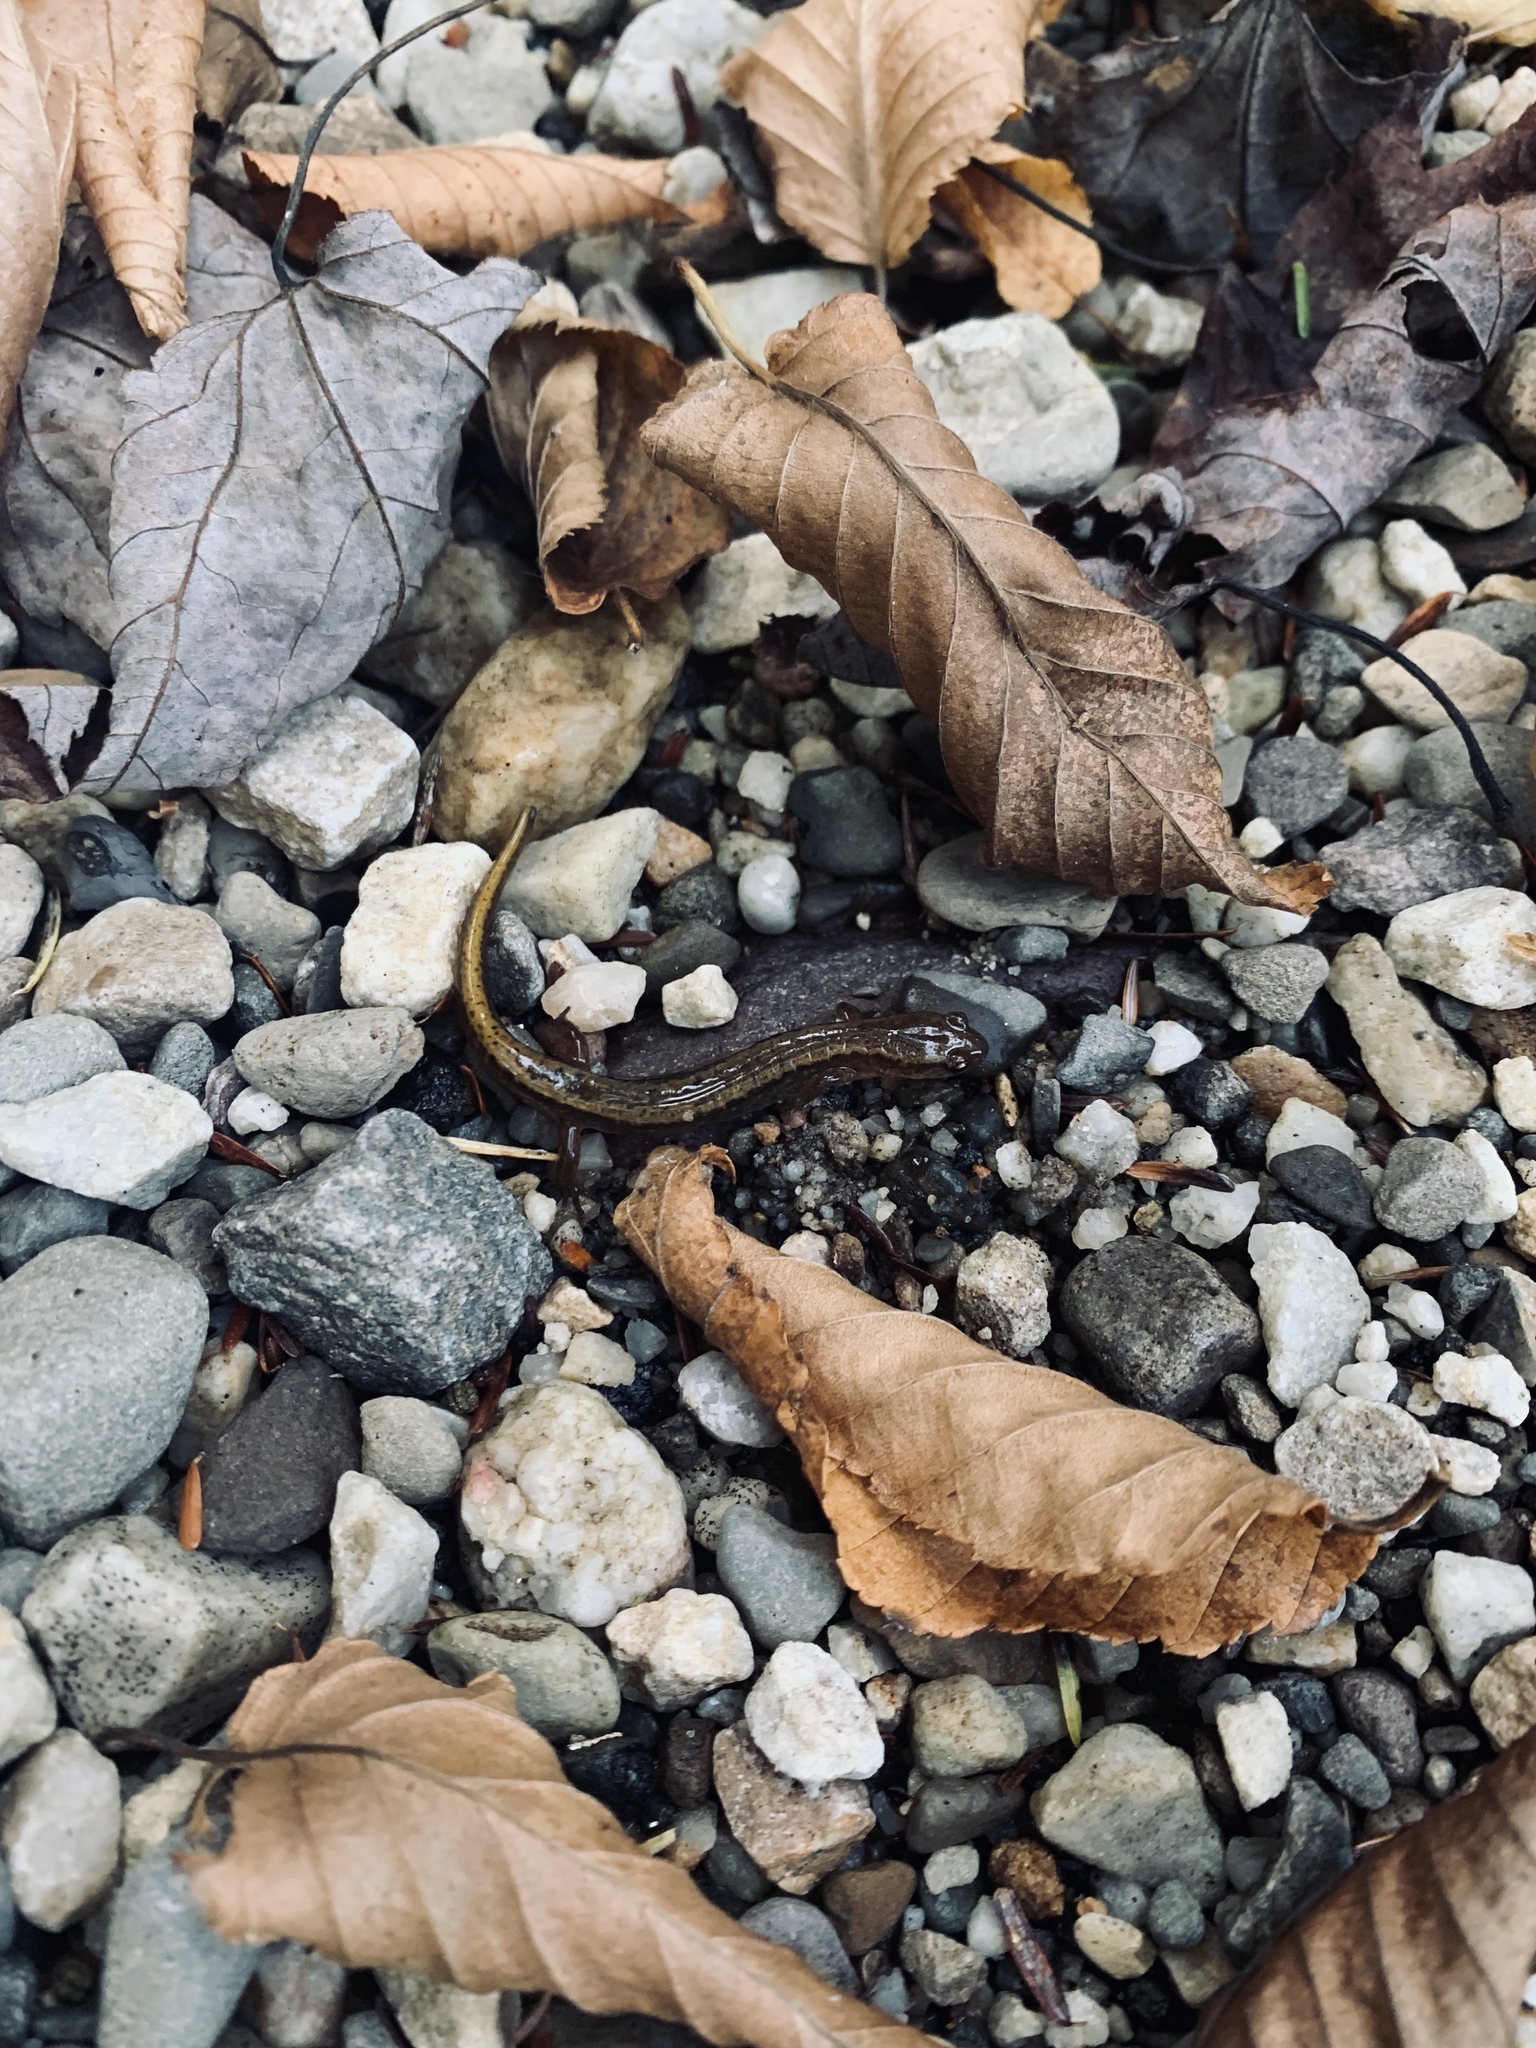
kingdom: Animalia
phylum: Chordata
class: Amphibia
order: Caudata
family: Plethodontidae
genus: Eurycea
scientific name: Eurycea bislineata
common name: Northern two-lined salamander
